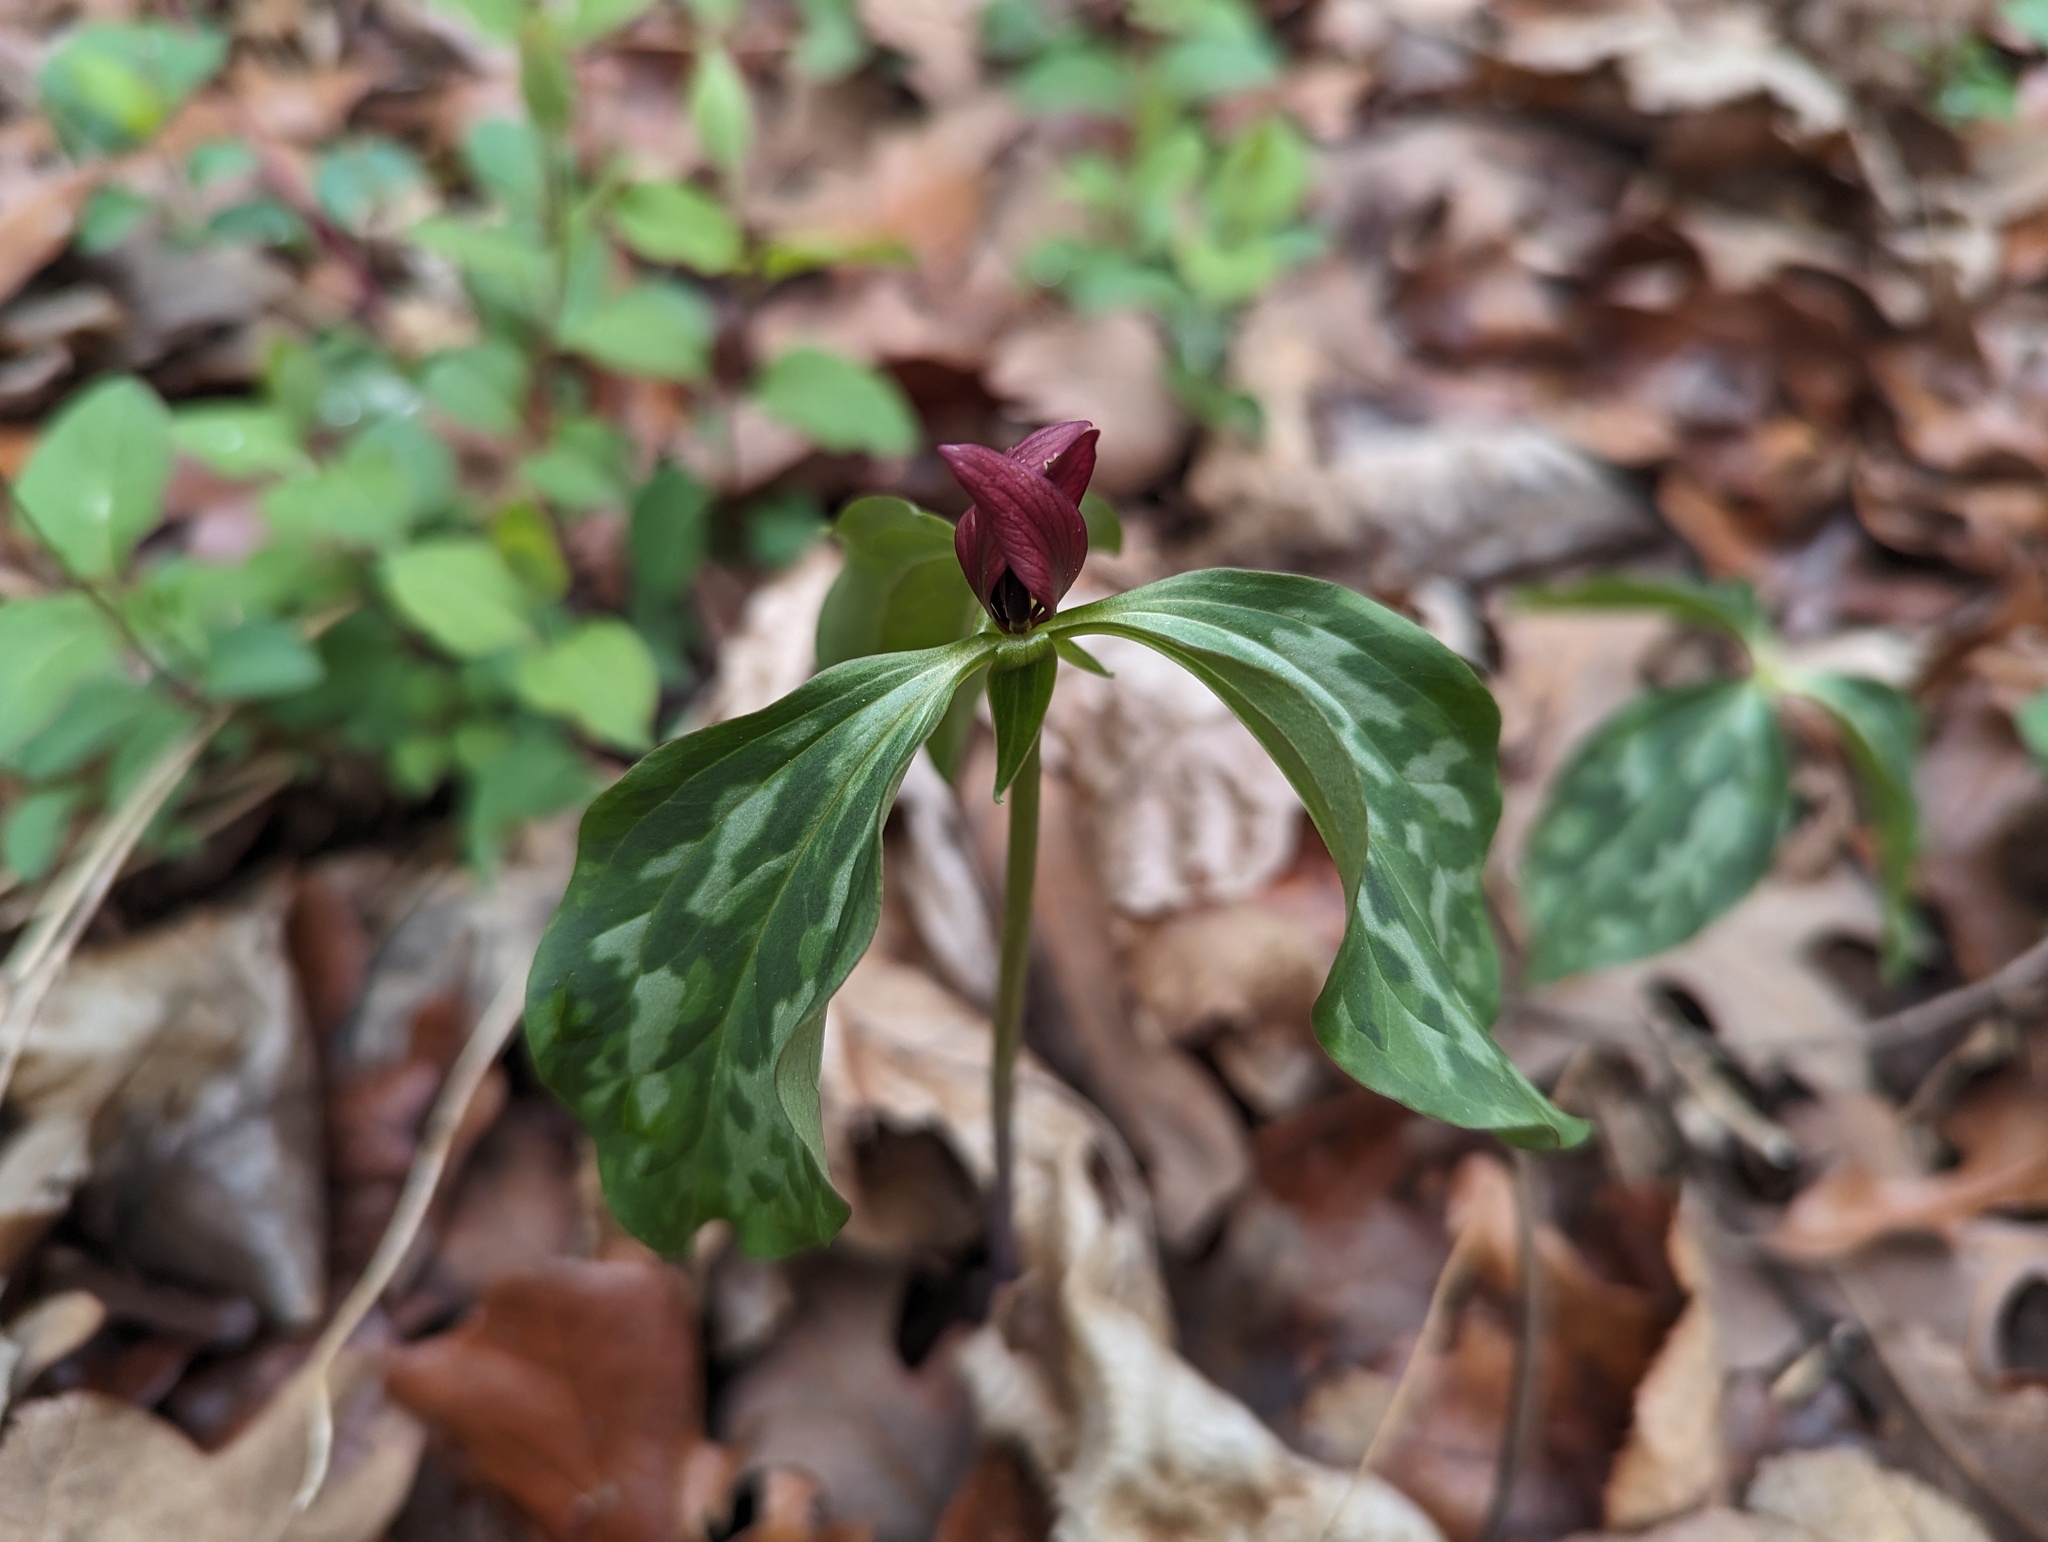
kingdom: Plantae
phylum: Tracheophyta
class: Liliopsida
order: Liliales
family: Melanthiaceae
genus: Trillium
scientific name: Trillium recurvatum
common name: Bloody butcher
